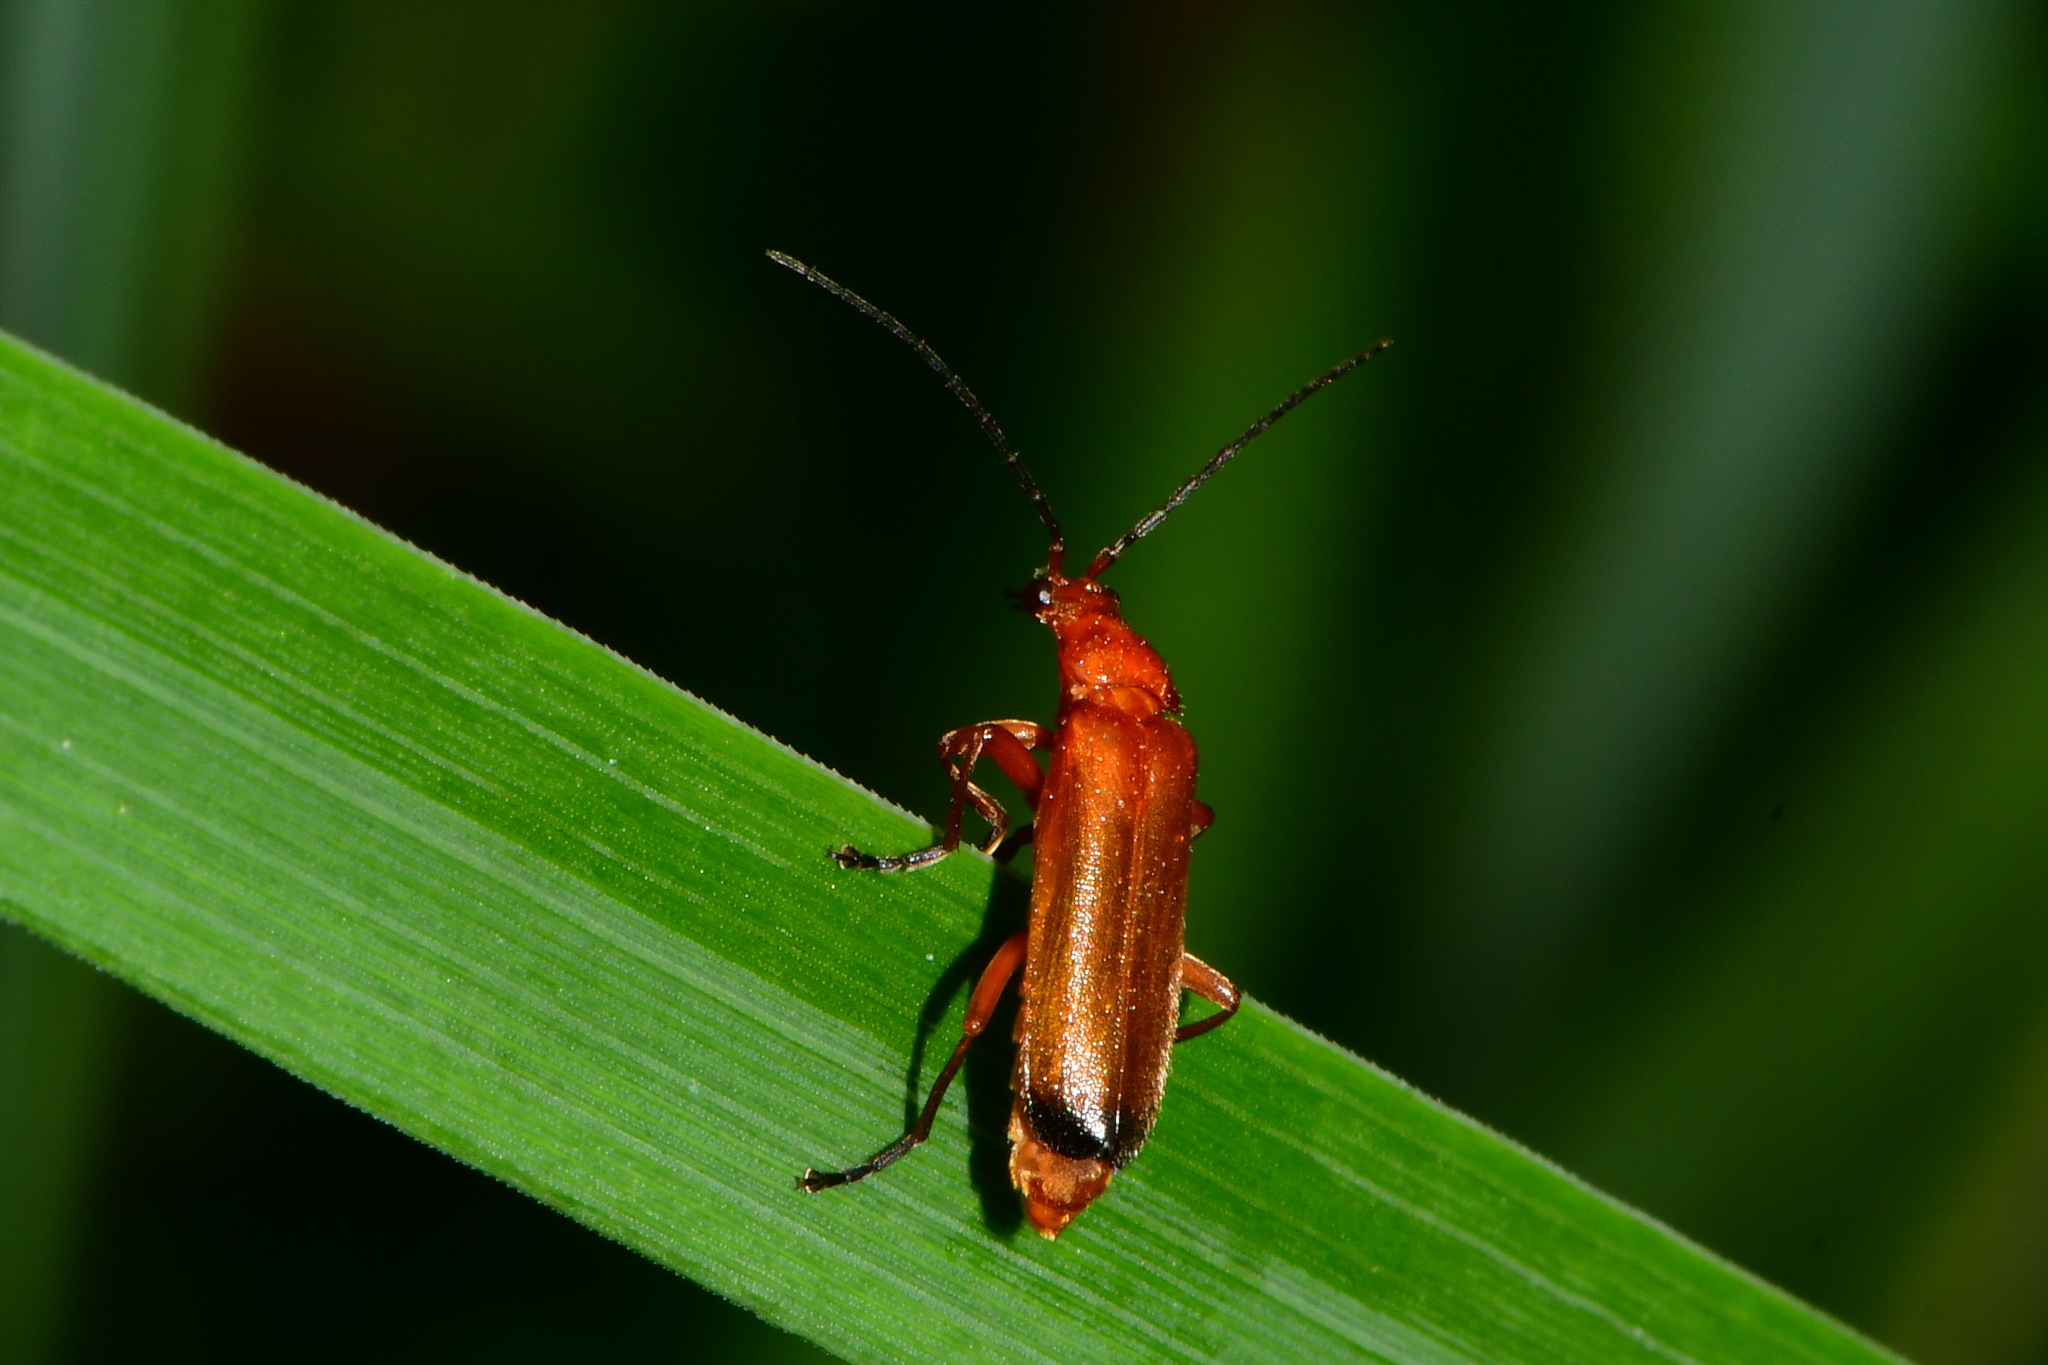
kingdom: Animalia
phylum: Arthropoda
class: Insecta
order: Coleoptera
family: Cantharidae
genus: Rhagonycha
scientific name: Rhagonycha fulva
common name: Common red soldier beetle
